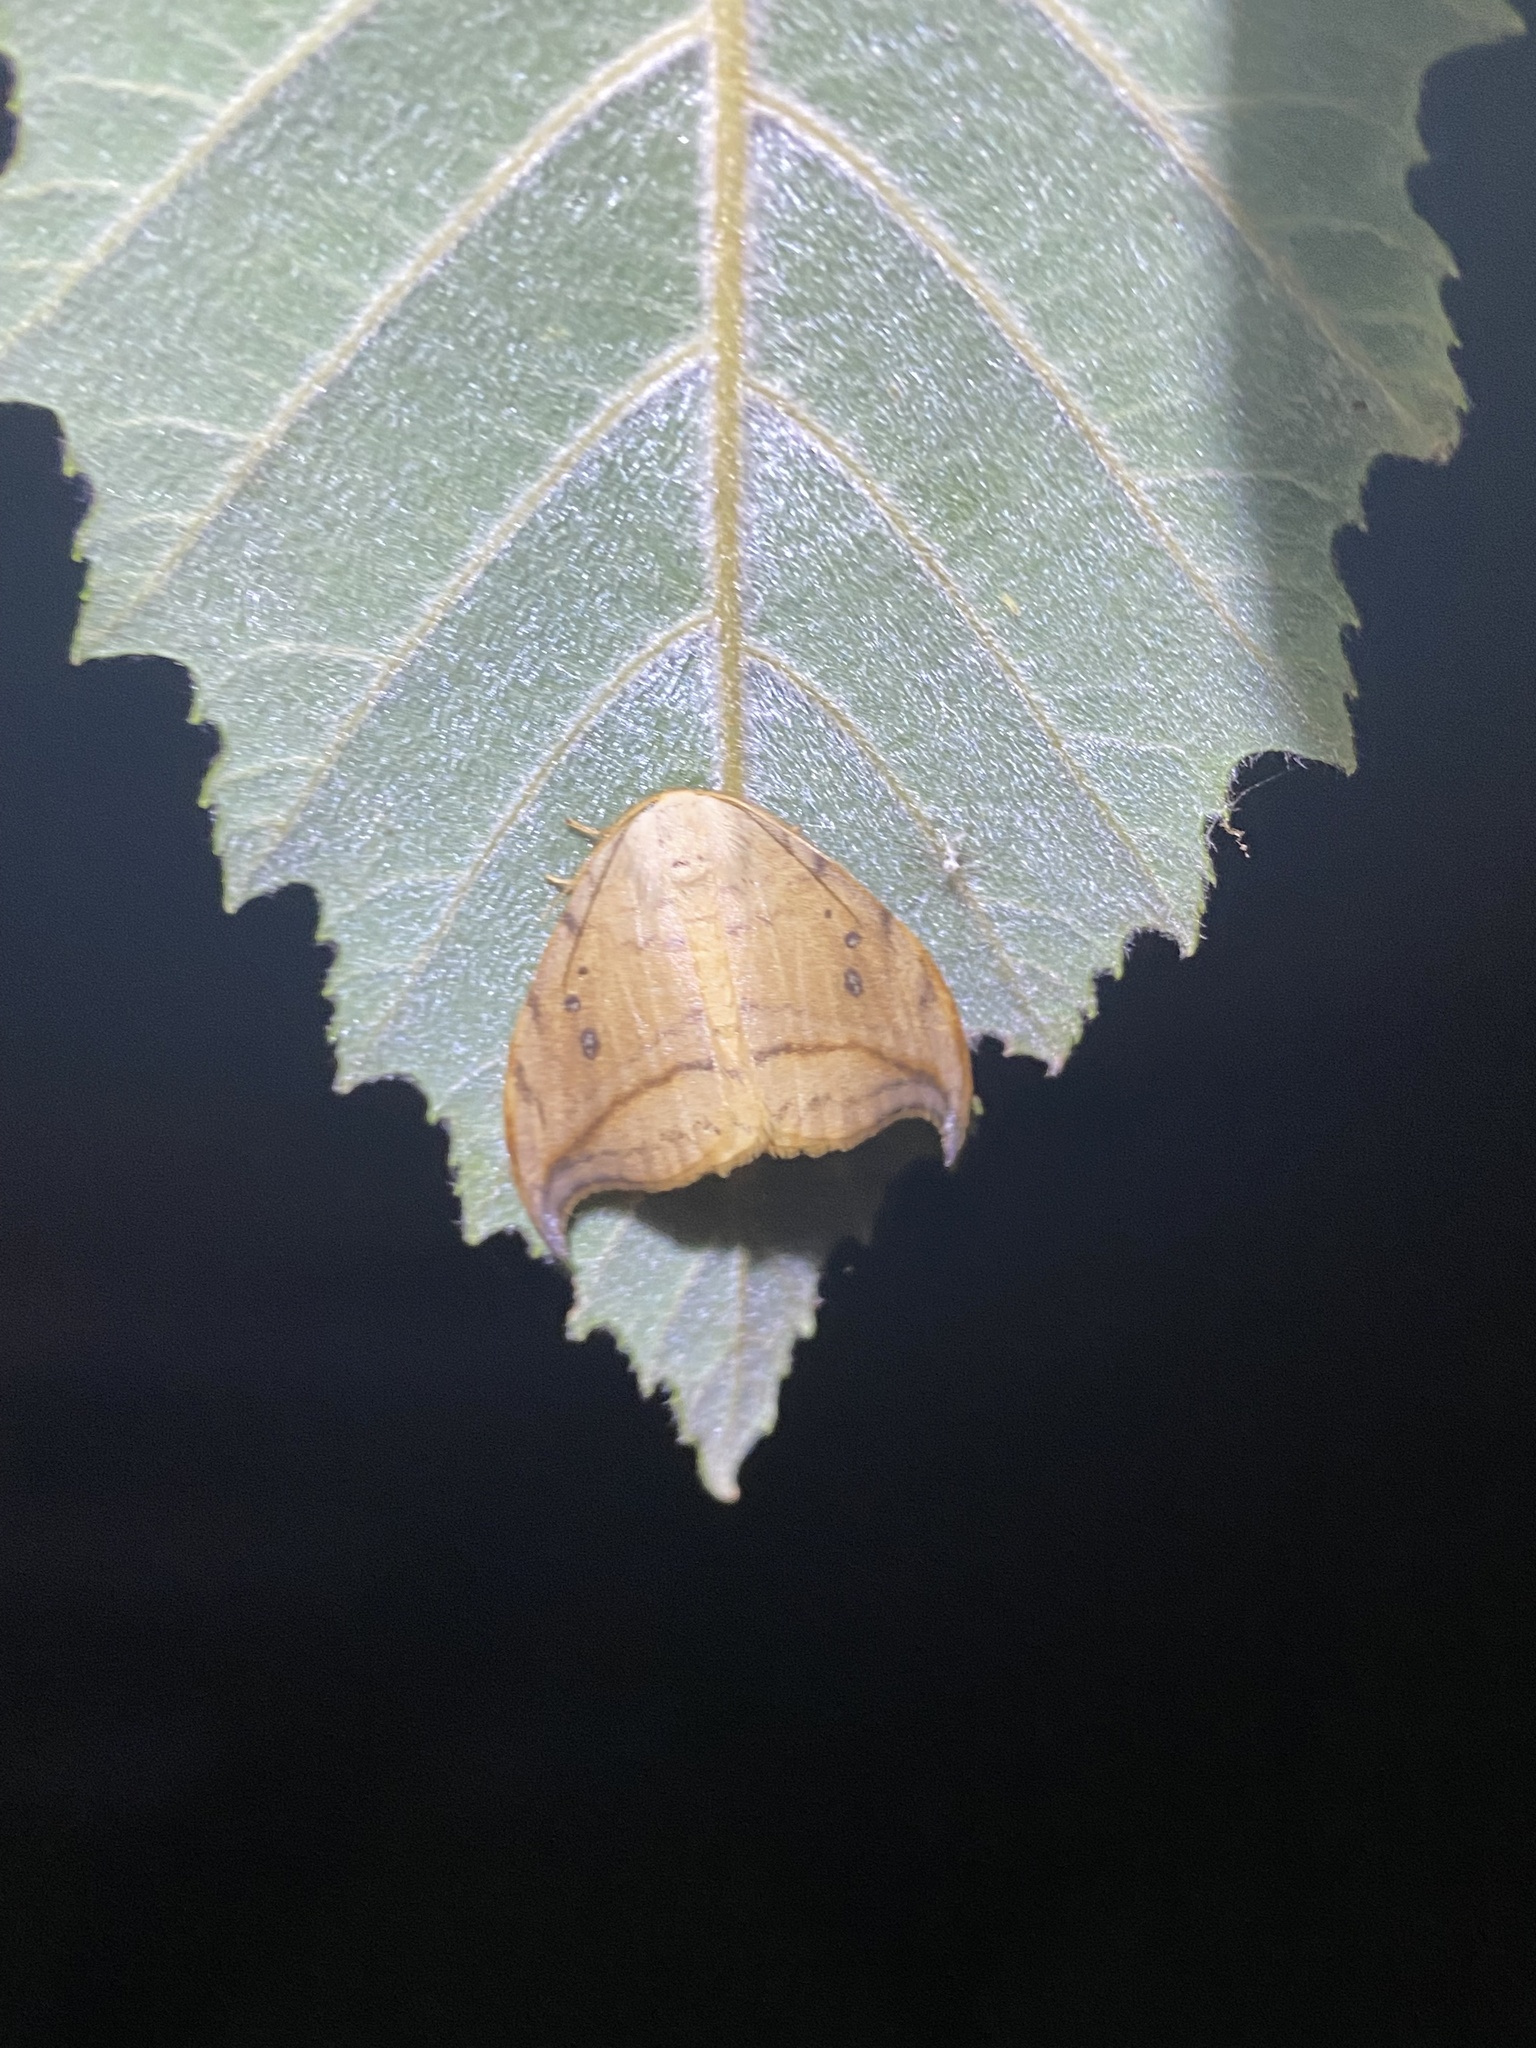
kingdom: Animalia
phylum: Arthropoda
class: Insecta
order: Lepidoptera
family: Drepanidae
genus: Drepana
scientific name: Drepana arcuata
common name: Arched hooktip moth
